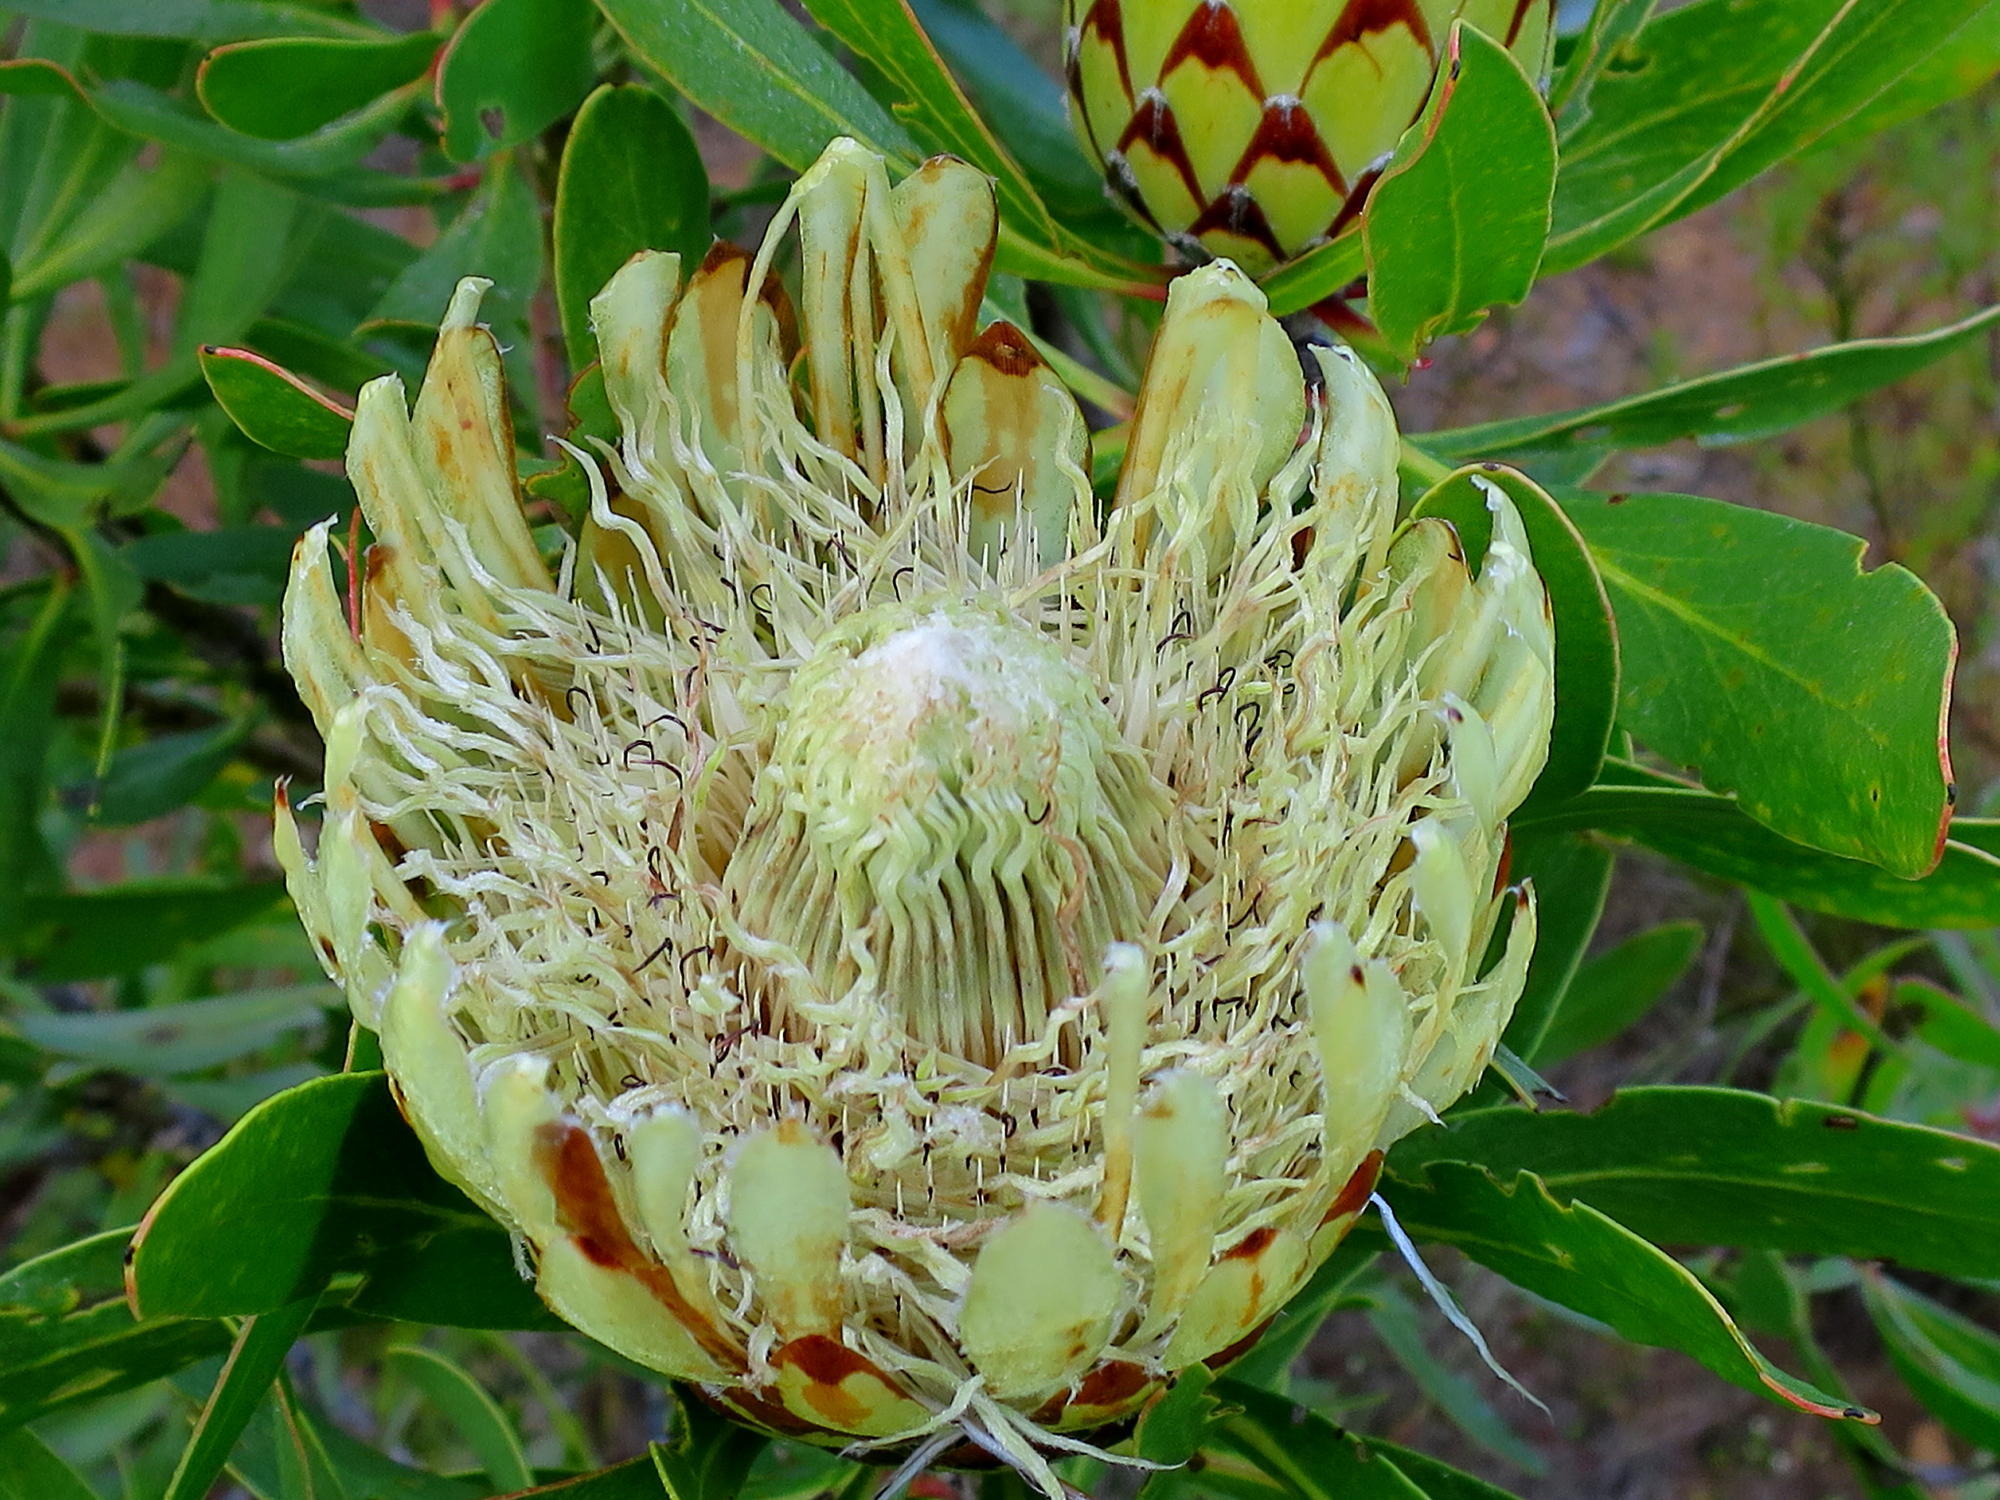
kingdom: Plantae
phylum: Tracheophyta
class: Magnoliopsida
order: Proteales
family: Proteaceae
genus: Protea
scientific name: Protea obtusifolia
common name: Bredasdorp sugarbush
